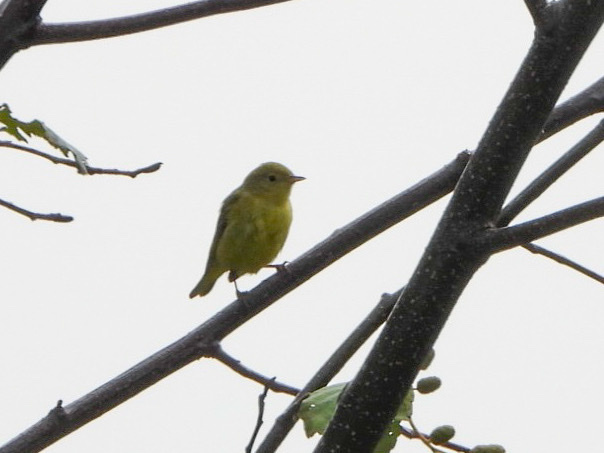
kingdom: Animalia
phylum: Chordata
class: Aves
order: Passeriformes
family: Parulidae
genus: Setophaga
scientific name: Setophaga petechia
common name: Yellow warbler
